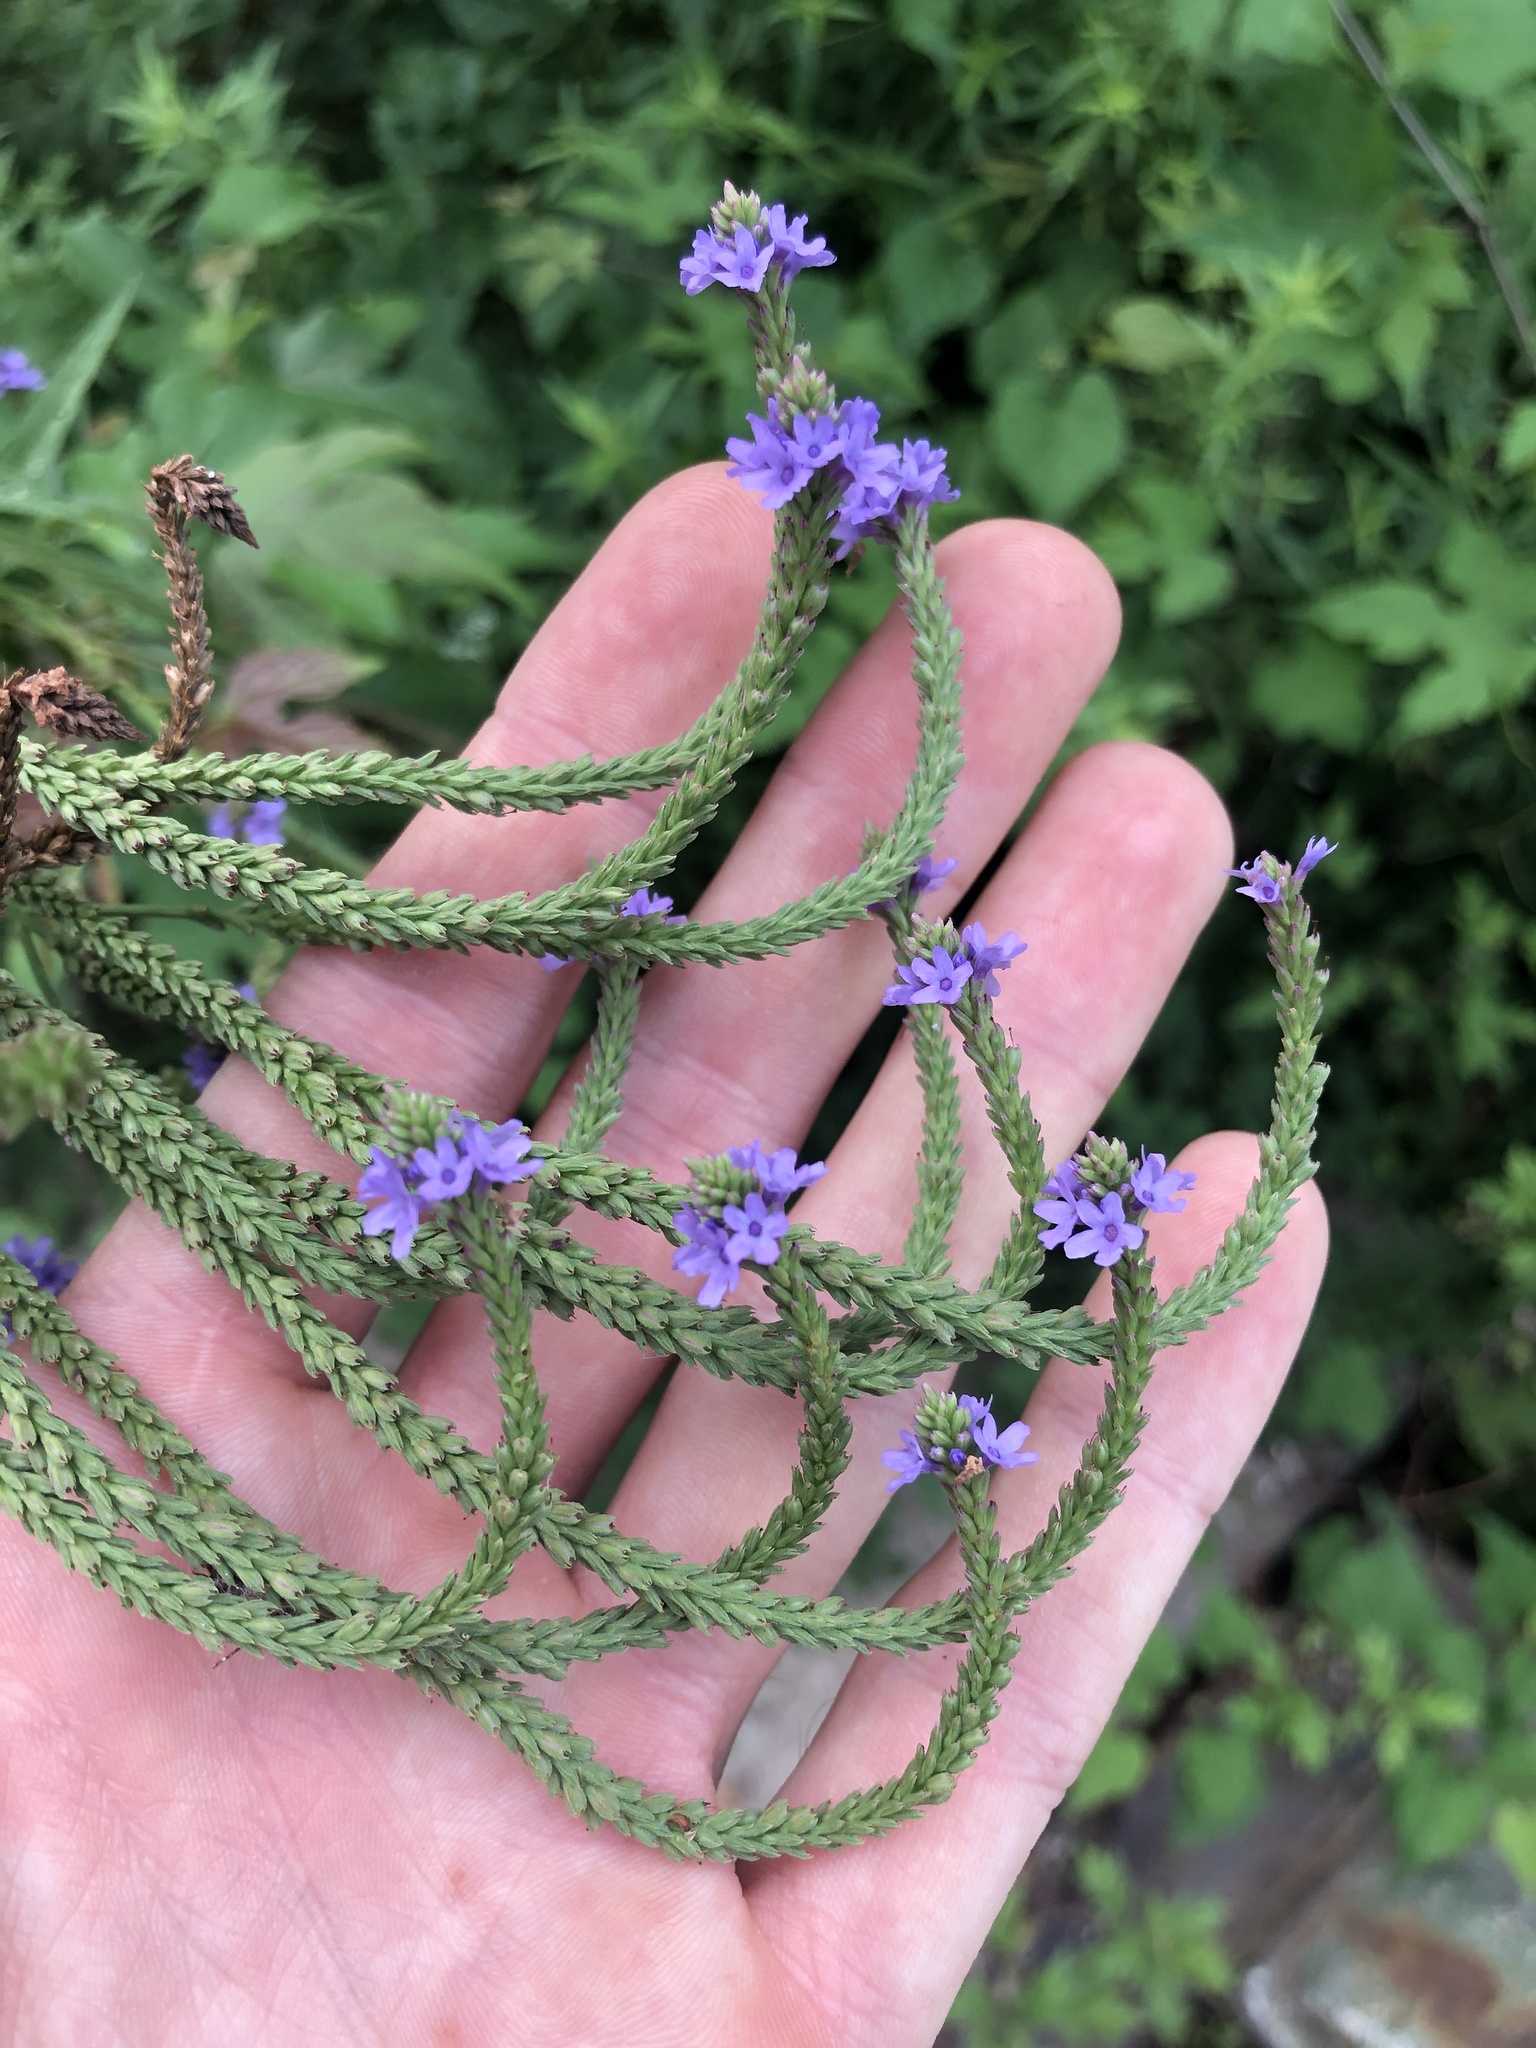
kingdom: Plantae
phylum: Tracheophyta
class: Magnoliopsida
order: Lamiales
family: Verbenaceae
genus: Verbena
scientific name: Verbena hastata
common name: American blue vervain
